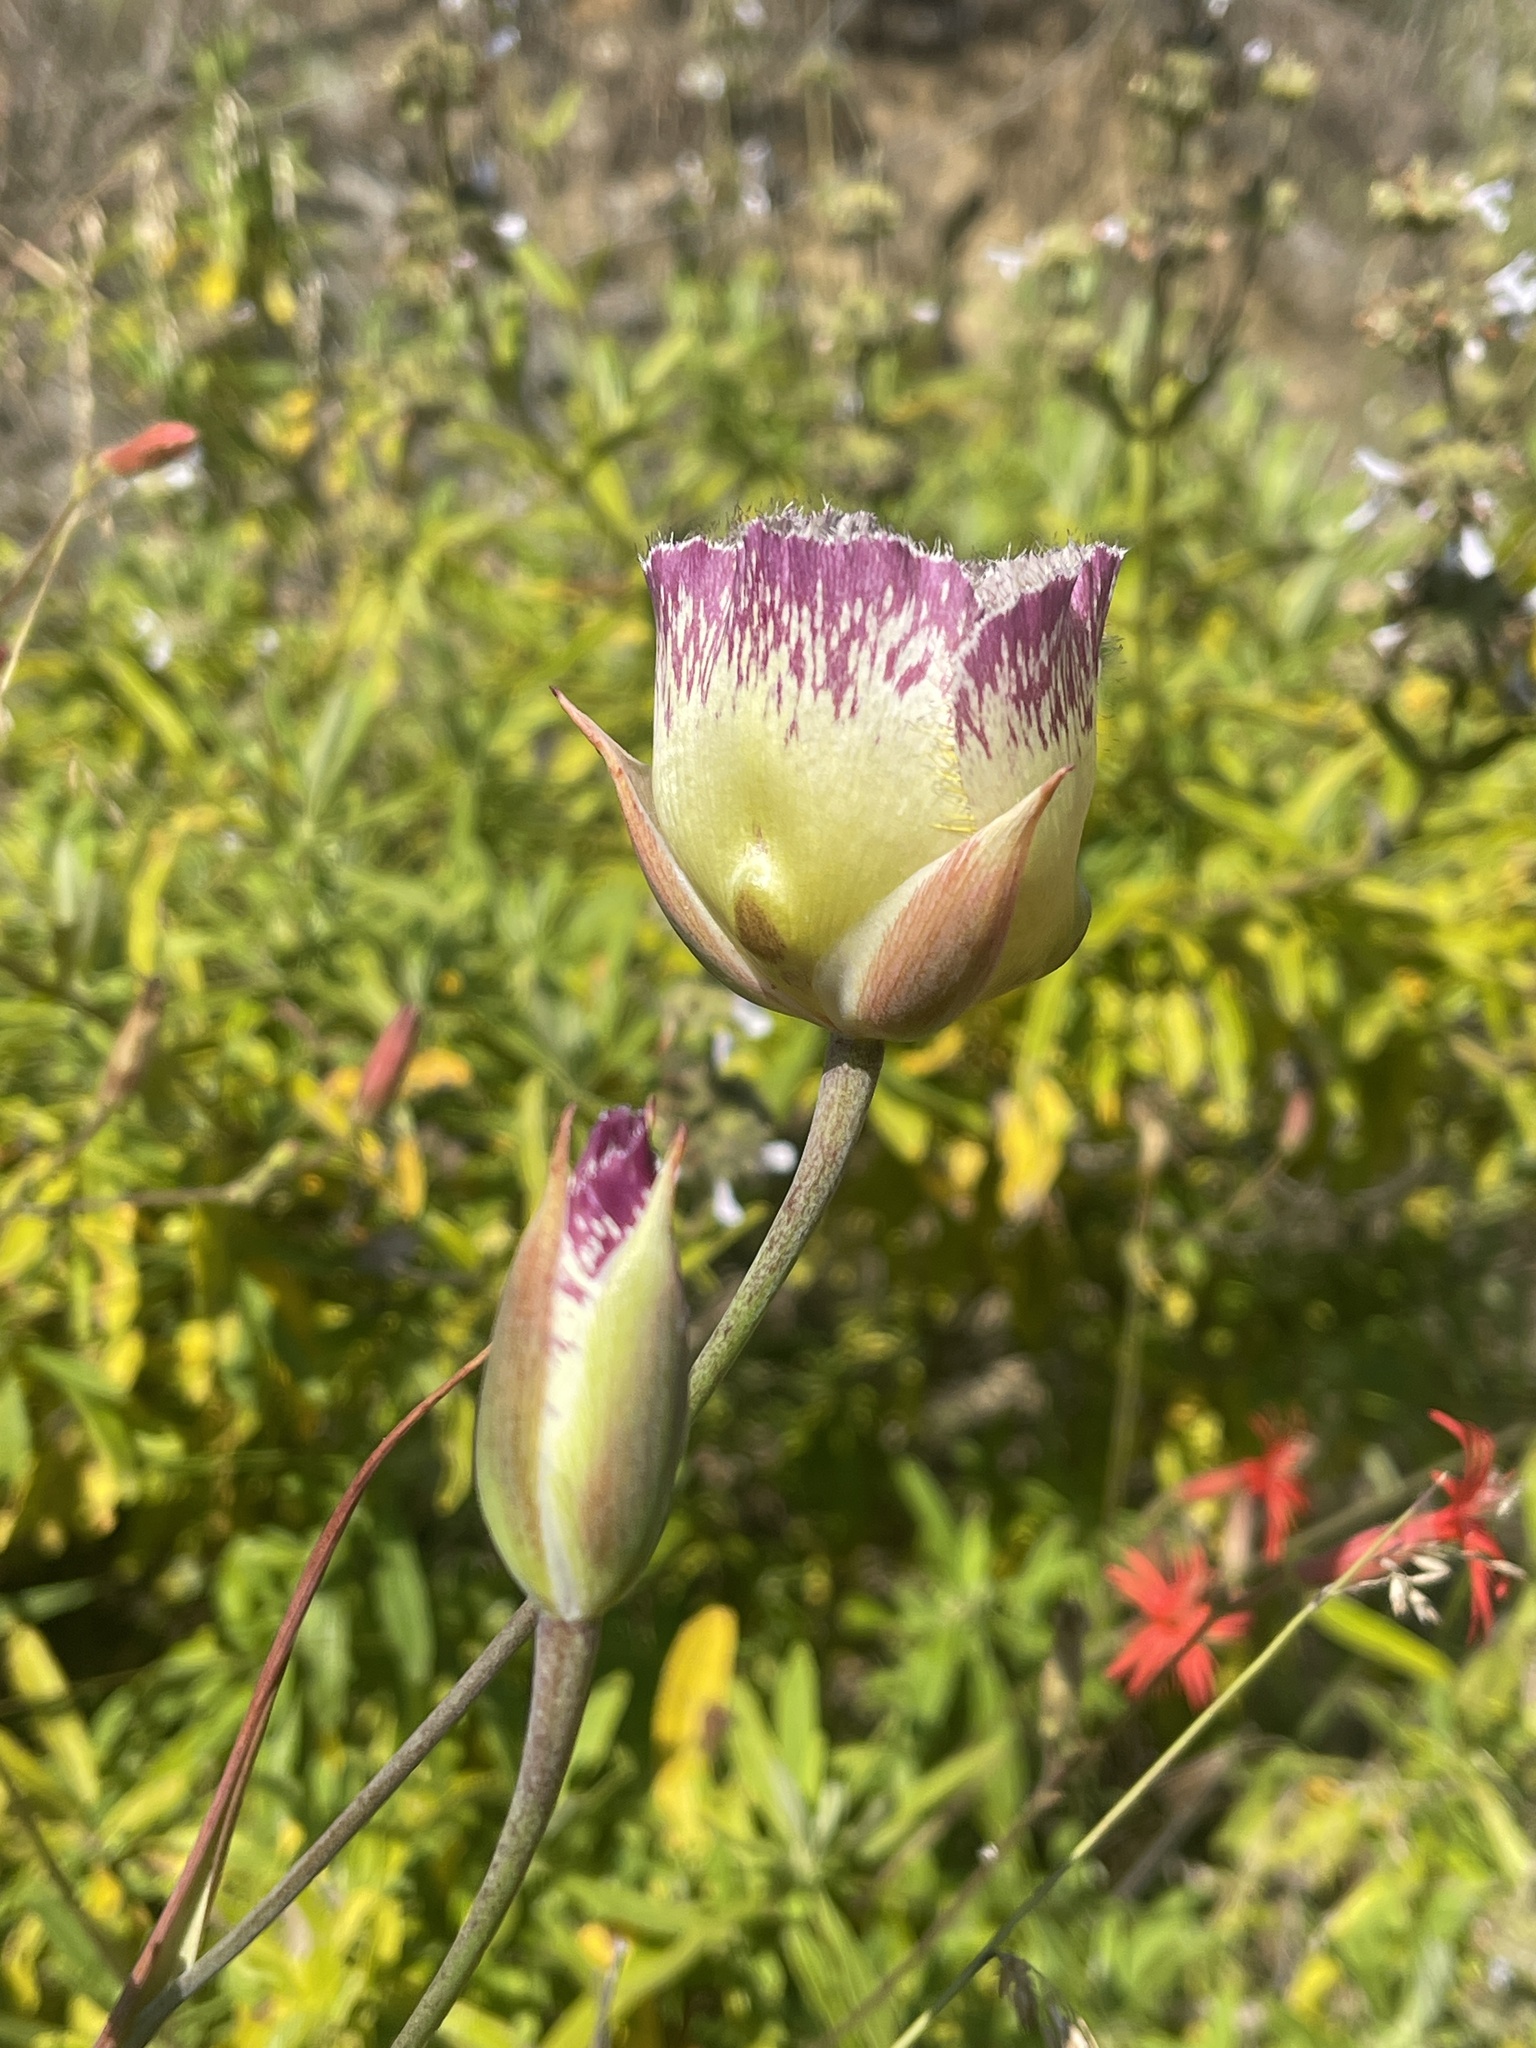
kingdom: Plantae
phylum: Tracheophyta
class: Liliopsida
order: Liliales
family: Liliaceae
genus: Calochortus
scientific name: Calochortus weedii
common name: Weed's mariposa-lily
